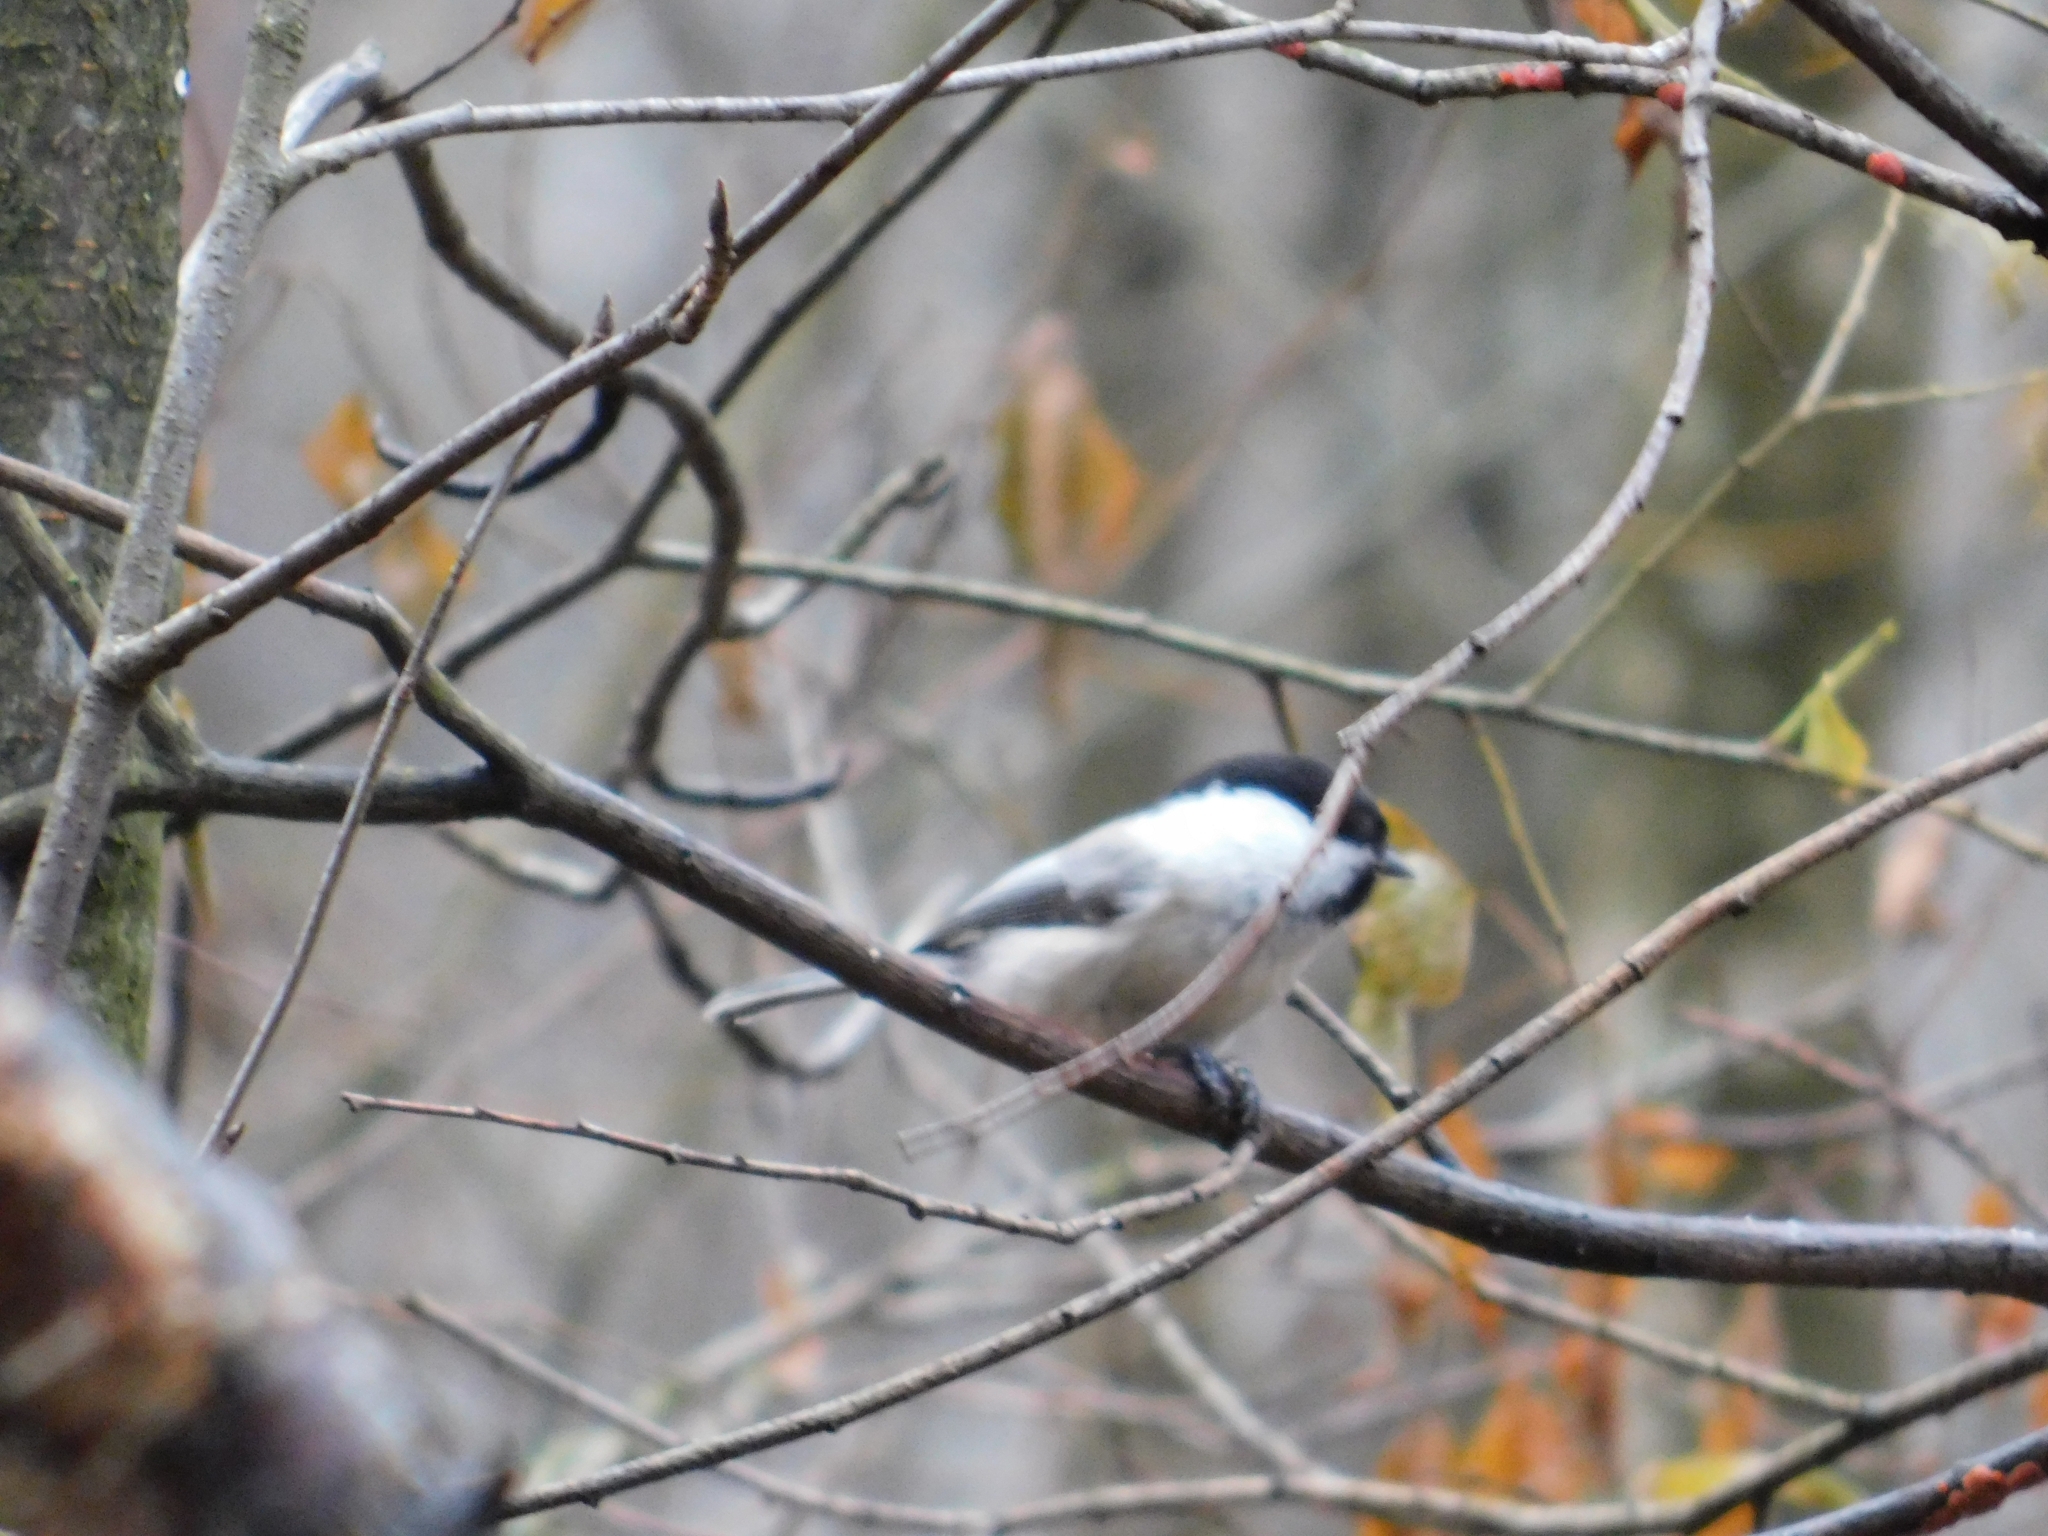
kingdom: Animalia
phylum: Chordata
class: Aves
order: Passeriformes
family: Paridae
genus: Poecile
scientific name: Poecile montanus
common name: Willow tit
